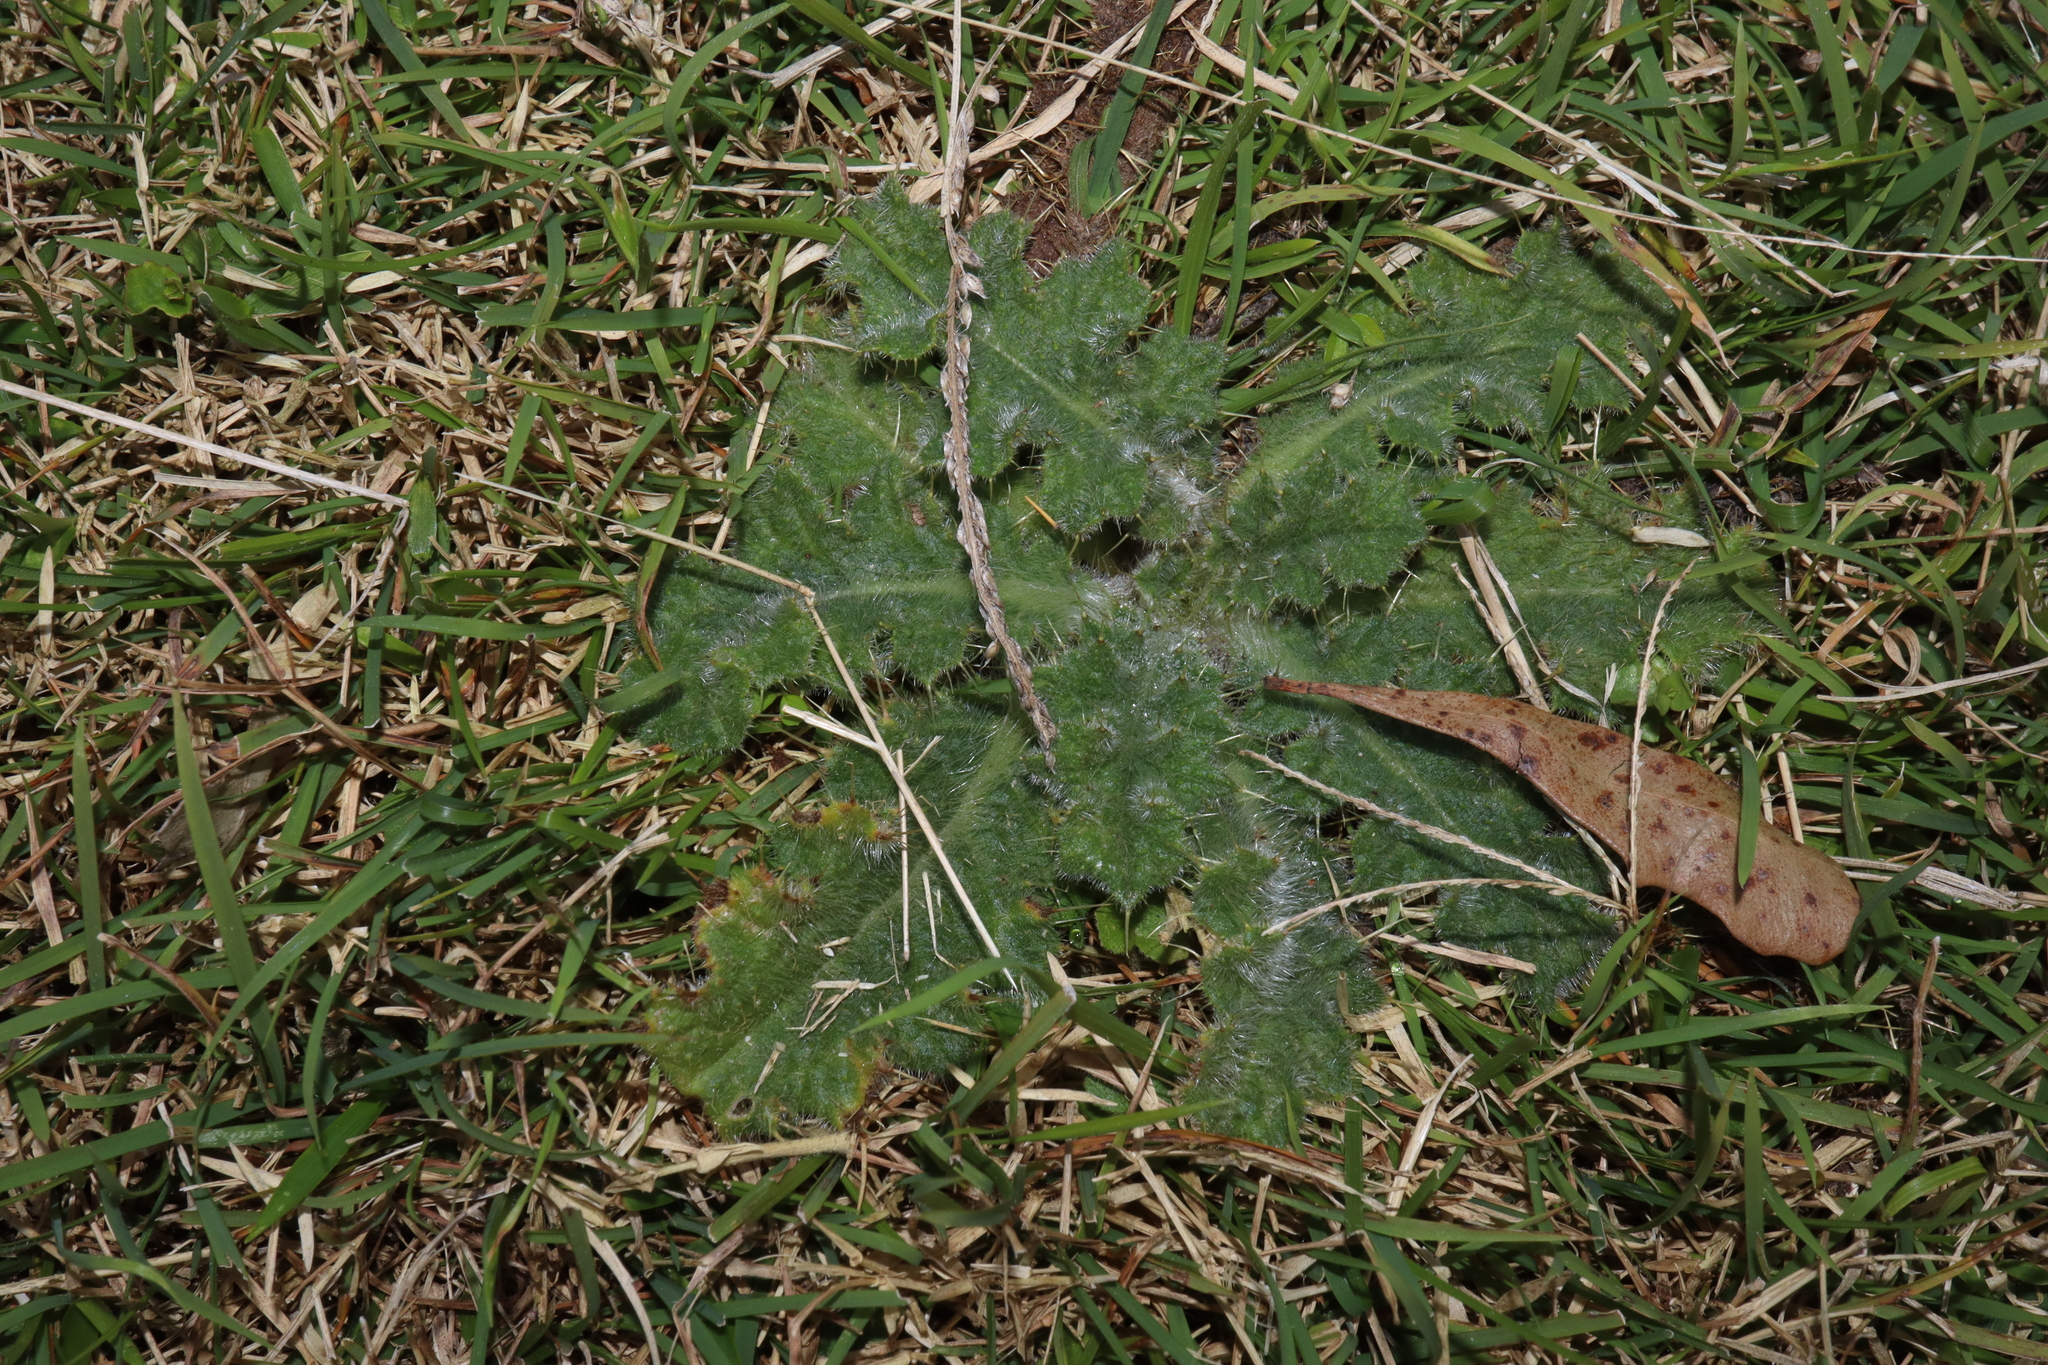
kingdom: Plantae
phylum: Tracheophyta
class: Magnoliopsida
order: Asterales
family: Asteraceae
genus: Cirsium
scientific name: Cirsium vulgare
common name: Bull thistle
